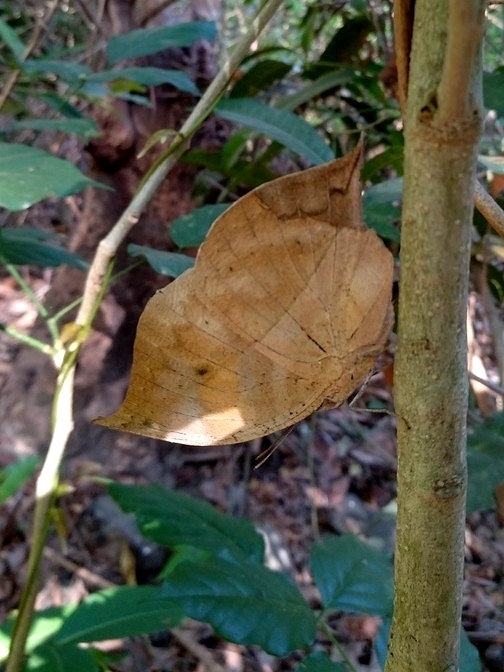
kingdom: Animalia
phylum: Arthropoda
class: Insecta
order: Lepidoptera
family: Nymphalidae
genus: Kallima
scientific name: Kallima horsfieldii
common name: Sahyadri blue oakleaf
